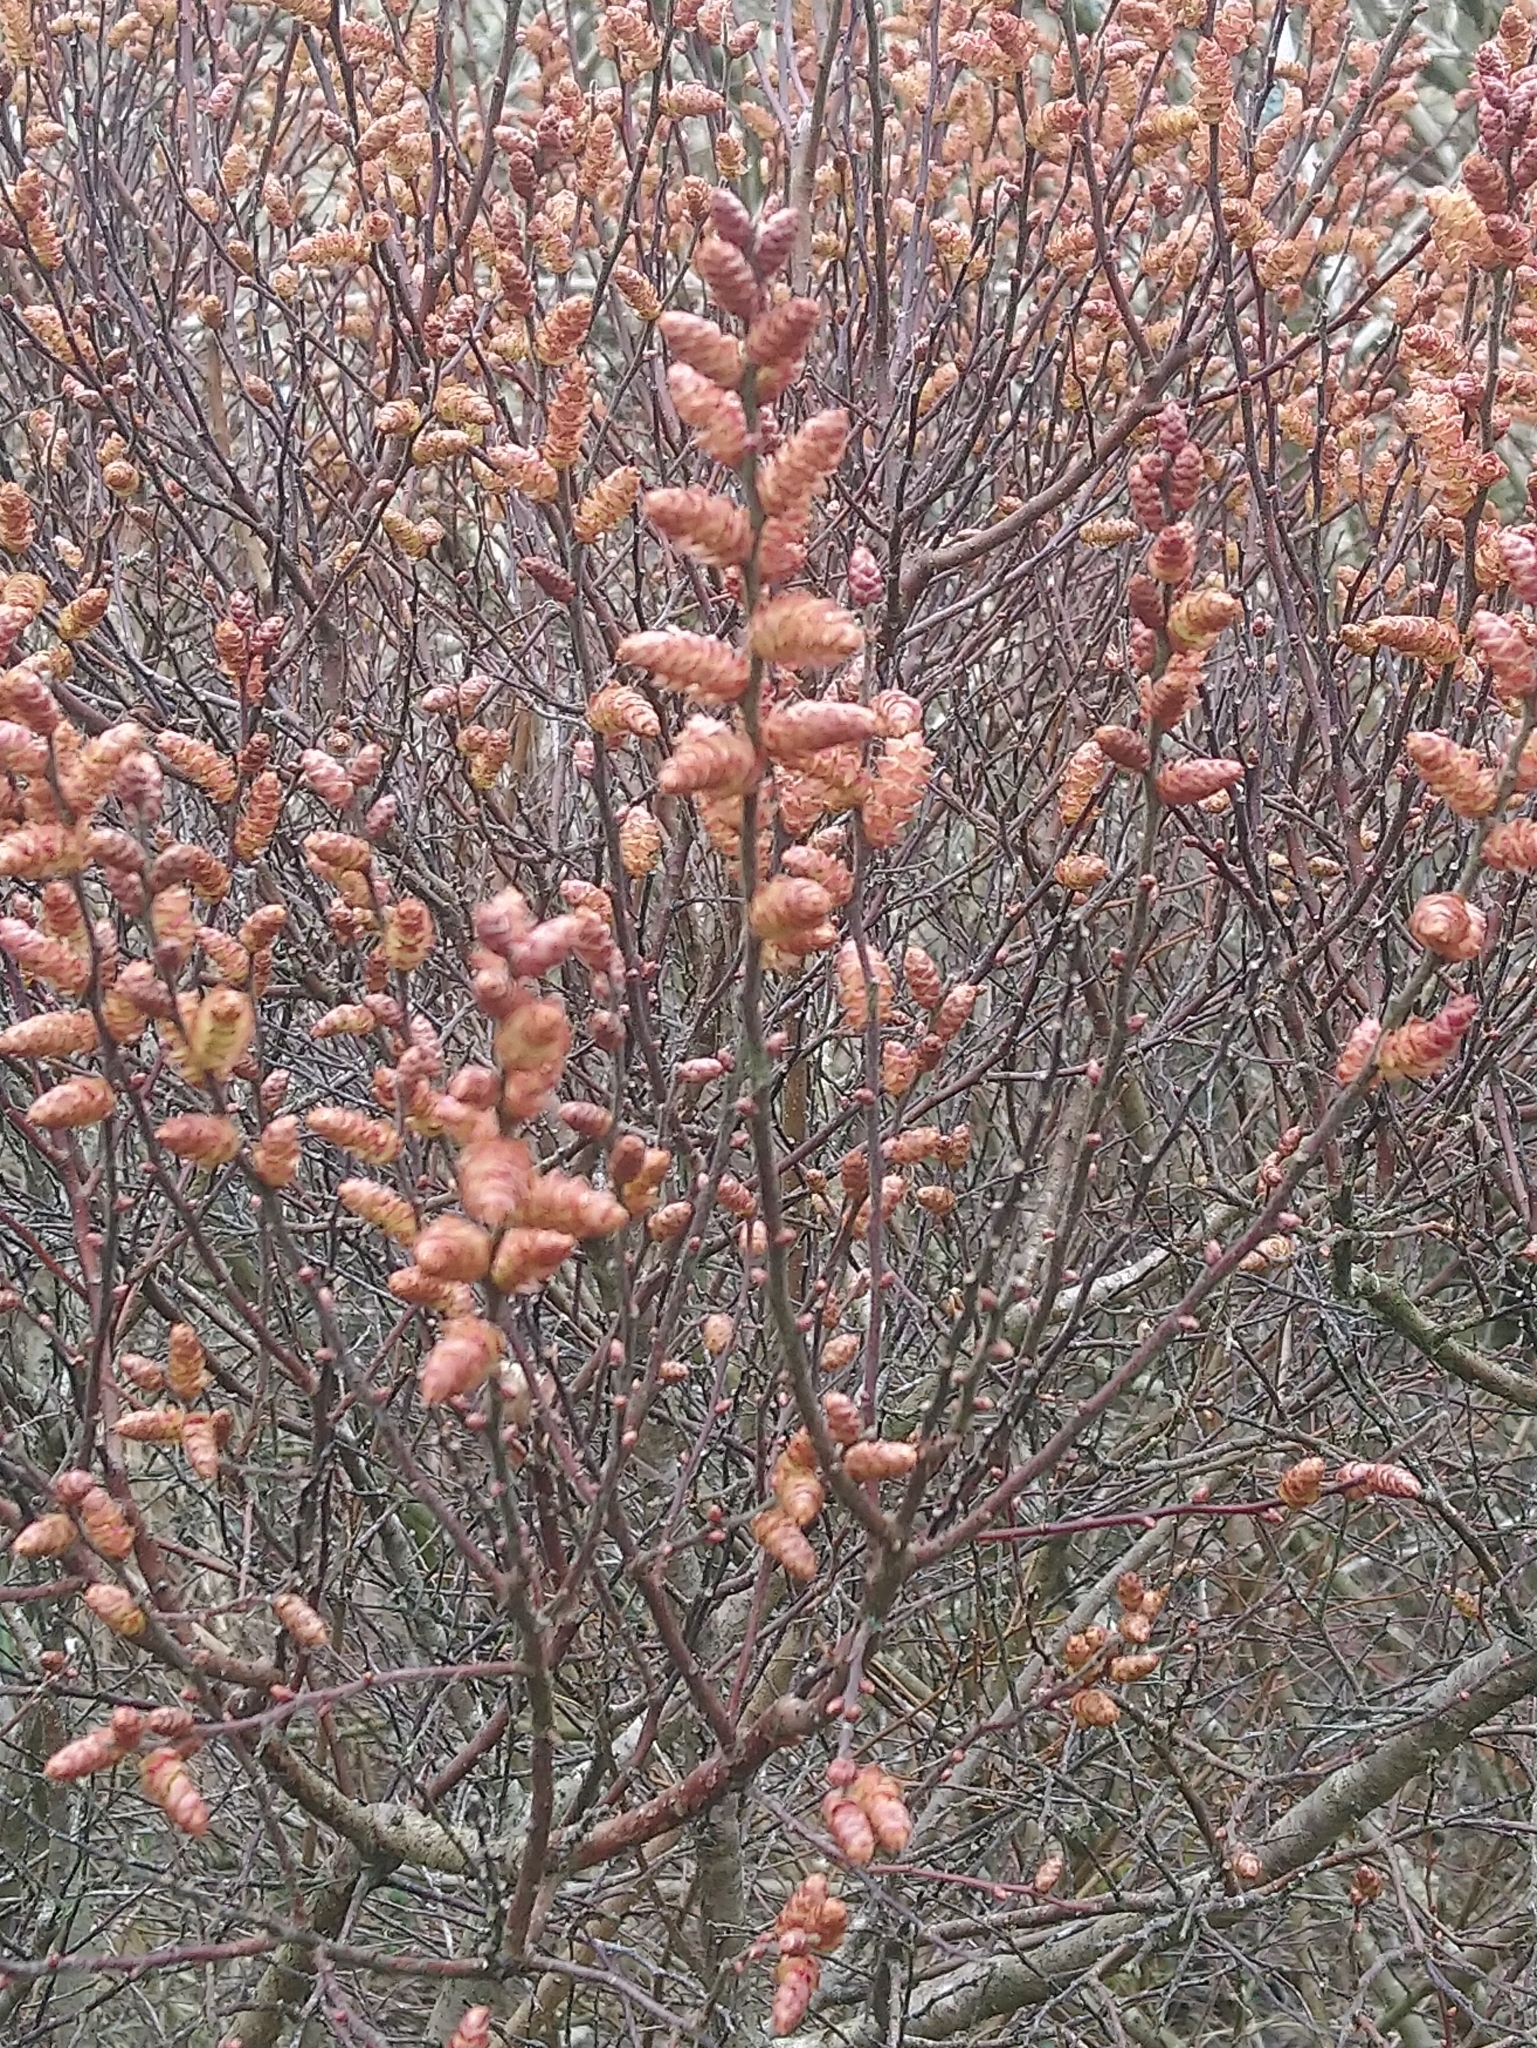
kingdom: Plantae
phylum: Tracheophyta
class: Magnoliopsida
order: Fagales
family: Myricaceae
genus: Myrica
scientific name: Myrica gale
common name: Sweet gale
